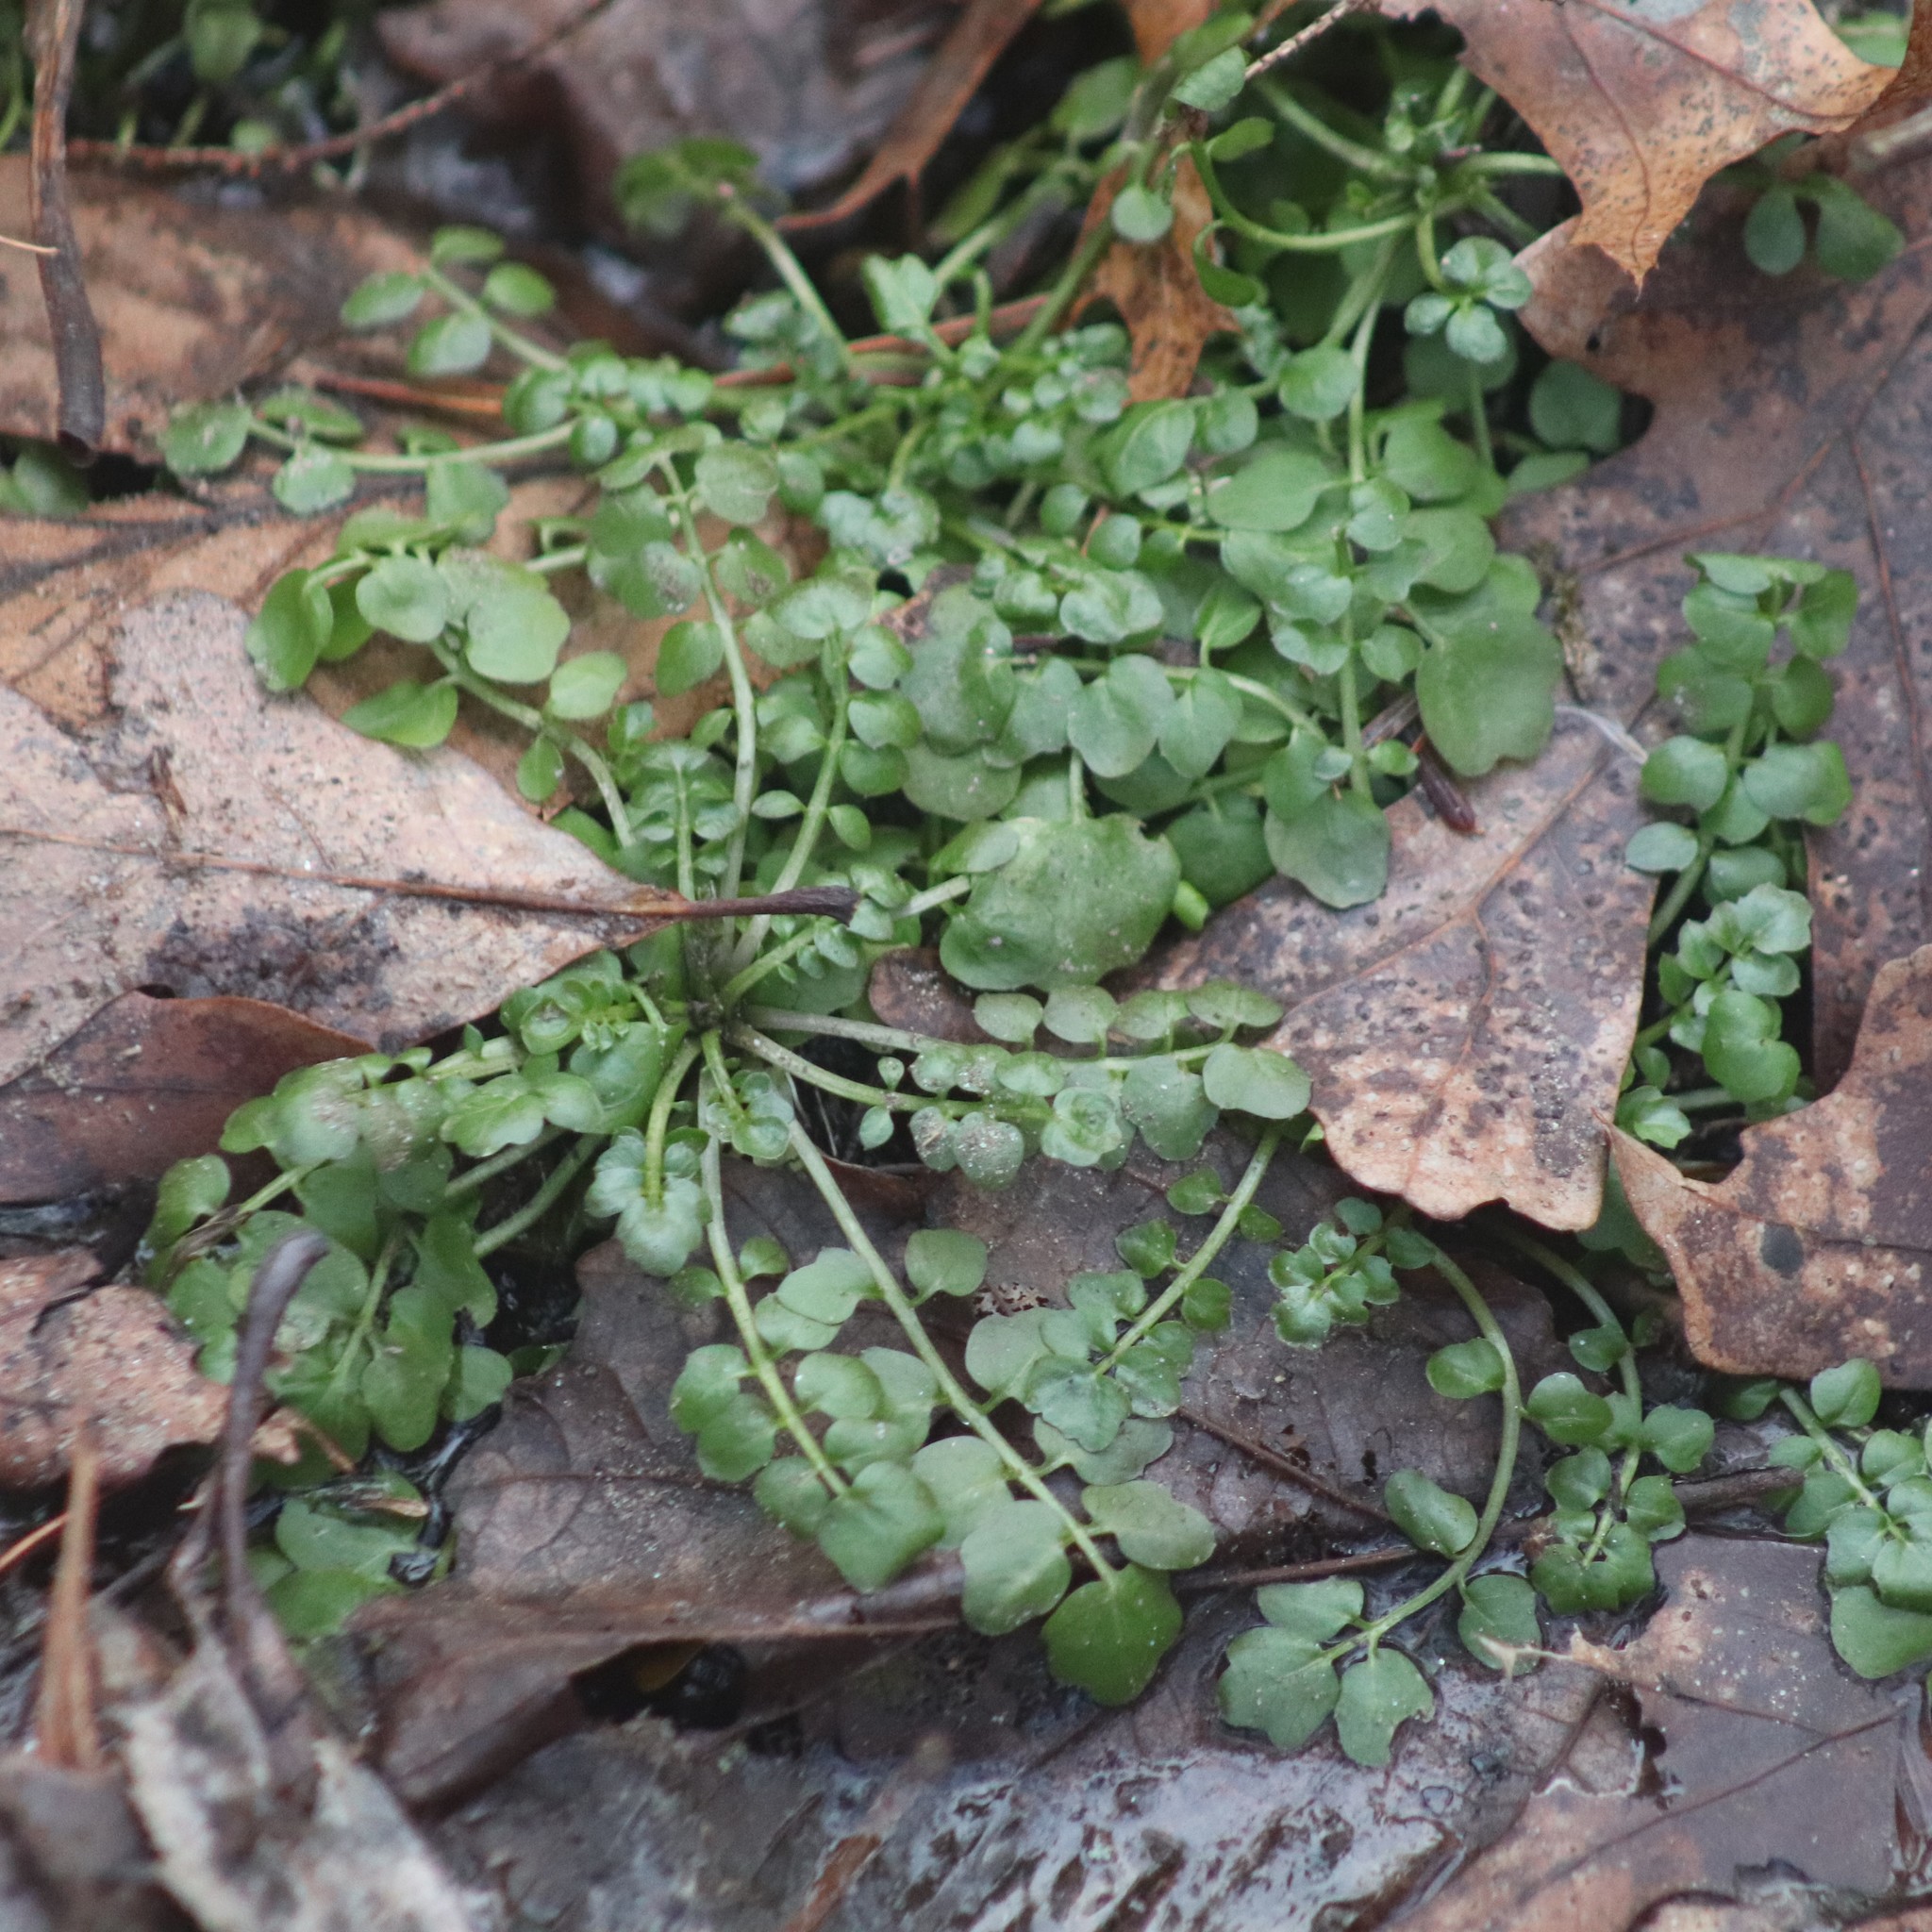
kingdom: Plantae
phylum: Tracheophyta
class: Magnoliopsida
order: Brassicales
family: Brassicaceae
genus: Cardamine
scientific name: Cardamine hirsuta
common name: Hairy bittercress
